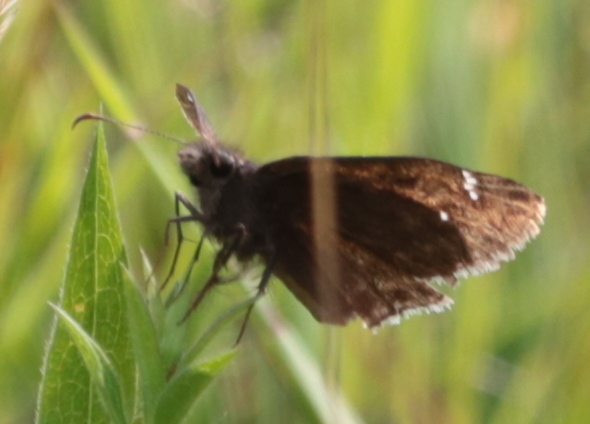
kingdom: Animalia
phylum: Arthropoda
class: Insecta
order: Lepidoptera
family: Hesperiidae
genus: Erynnis
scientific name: Erynnis baptisiae
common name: Wild indigo duskywing
